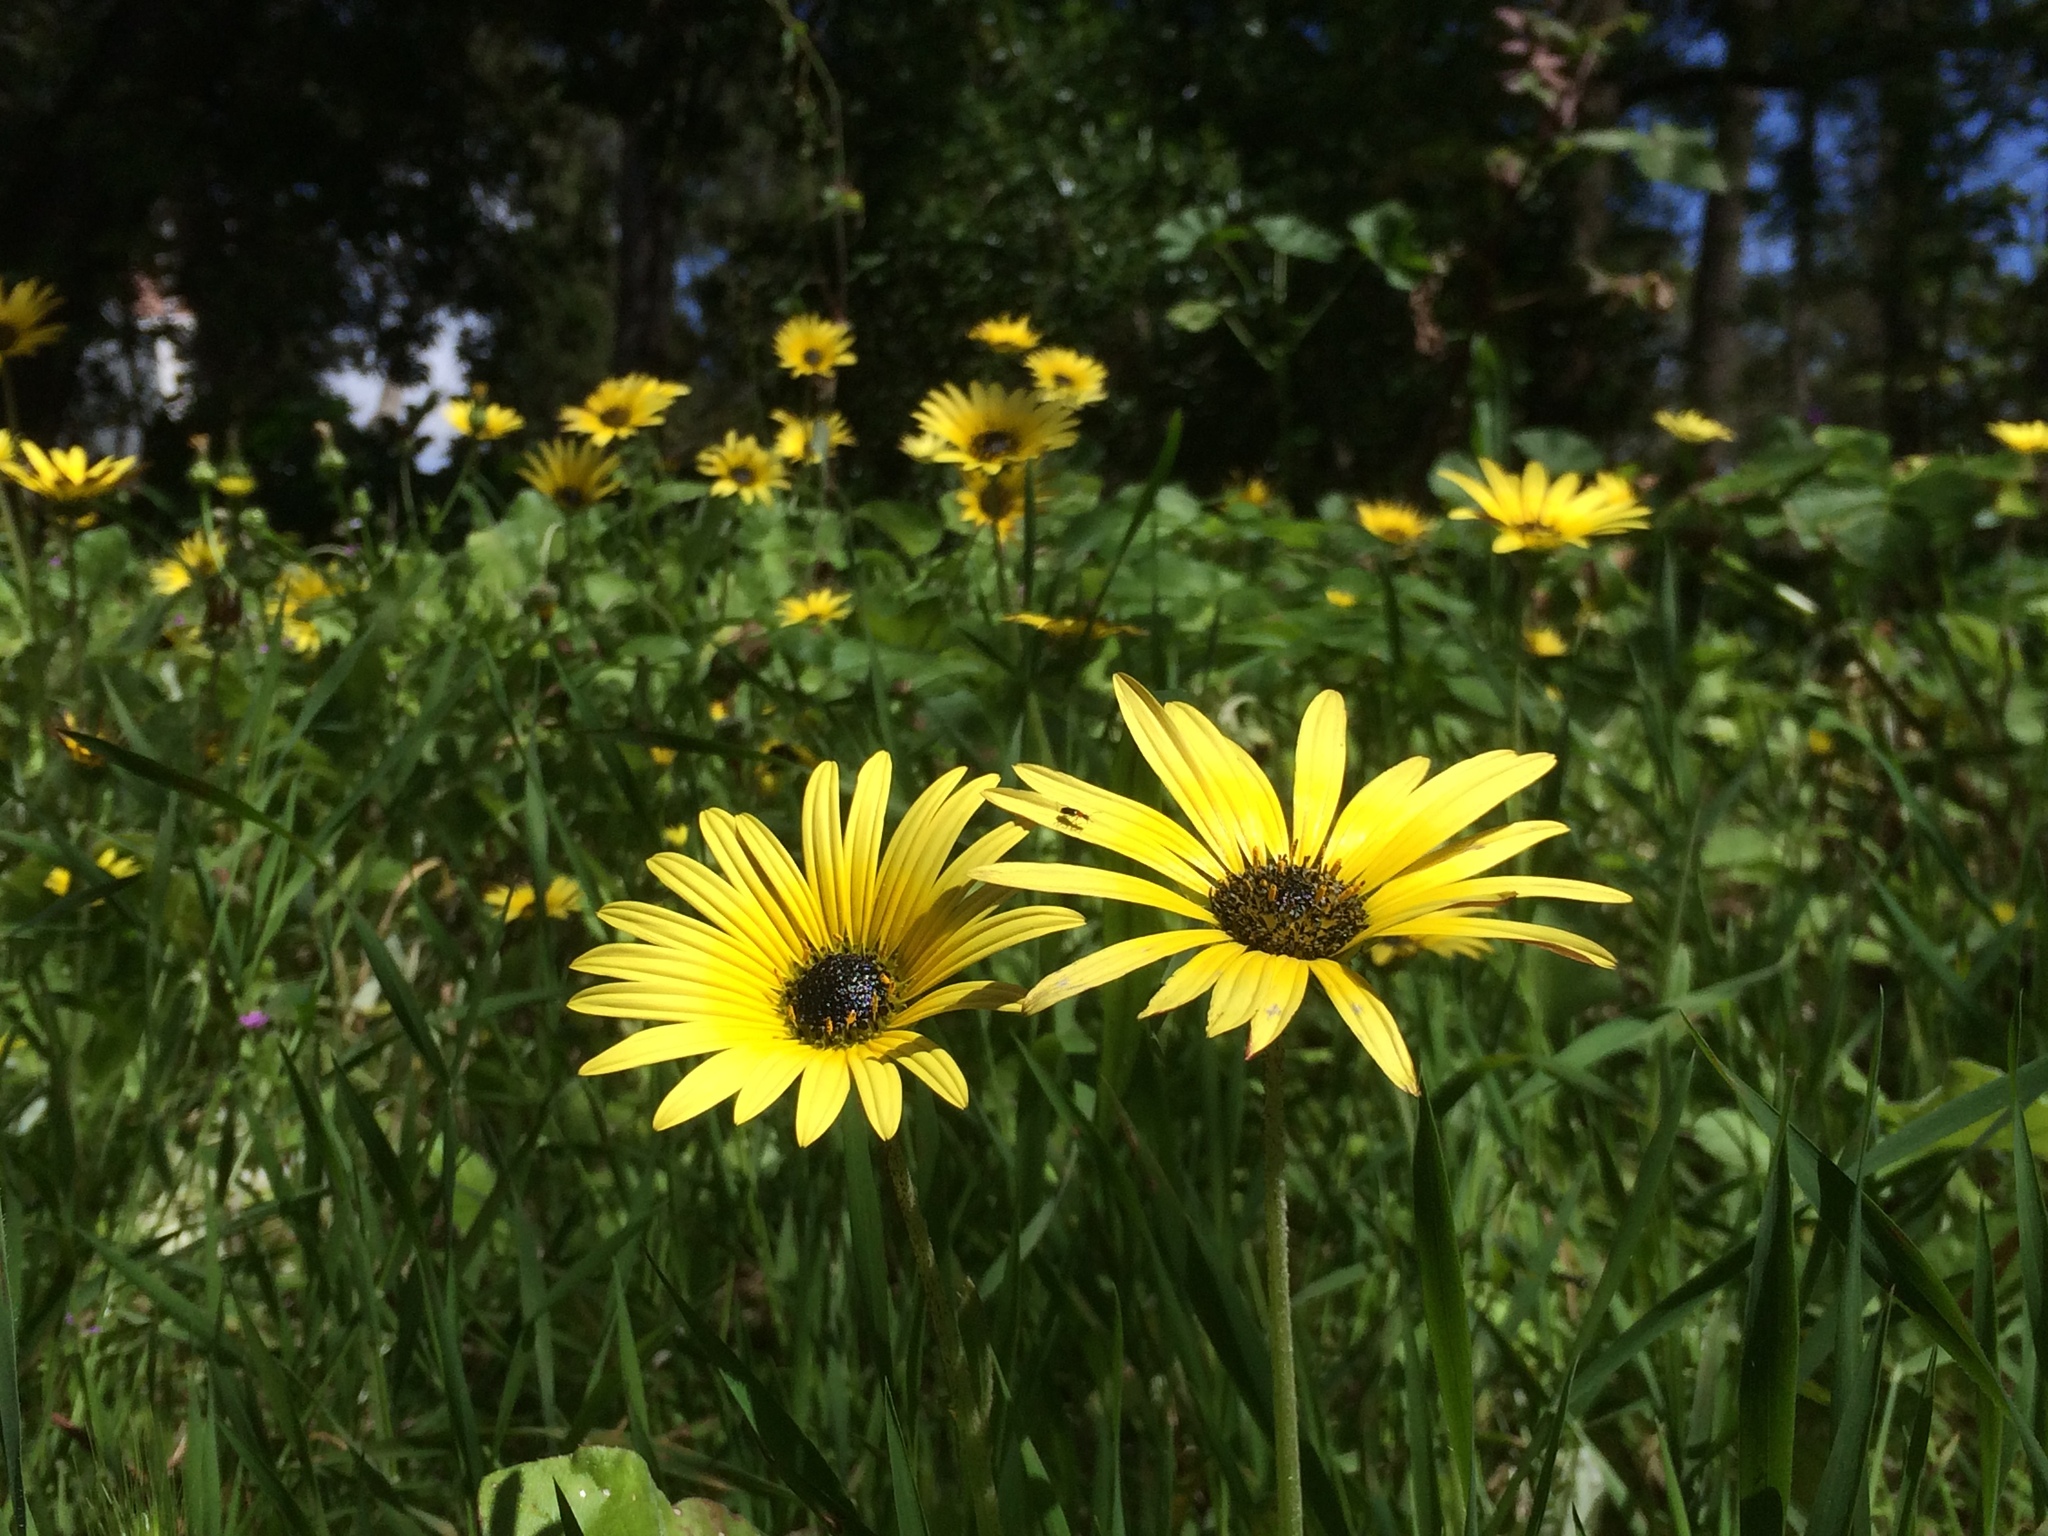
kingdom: Plantae
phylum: Tracheophyta
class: Magnoliopsida
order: Asterales
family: Asteraceae
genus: Arctotheca
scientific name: Arctotheca calendula
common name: Capeweed
